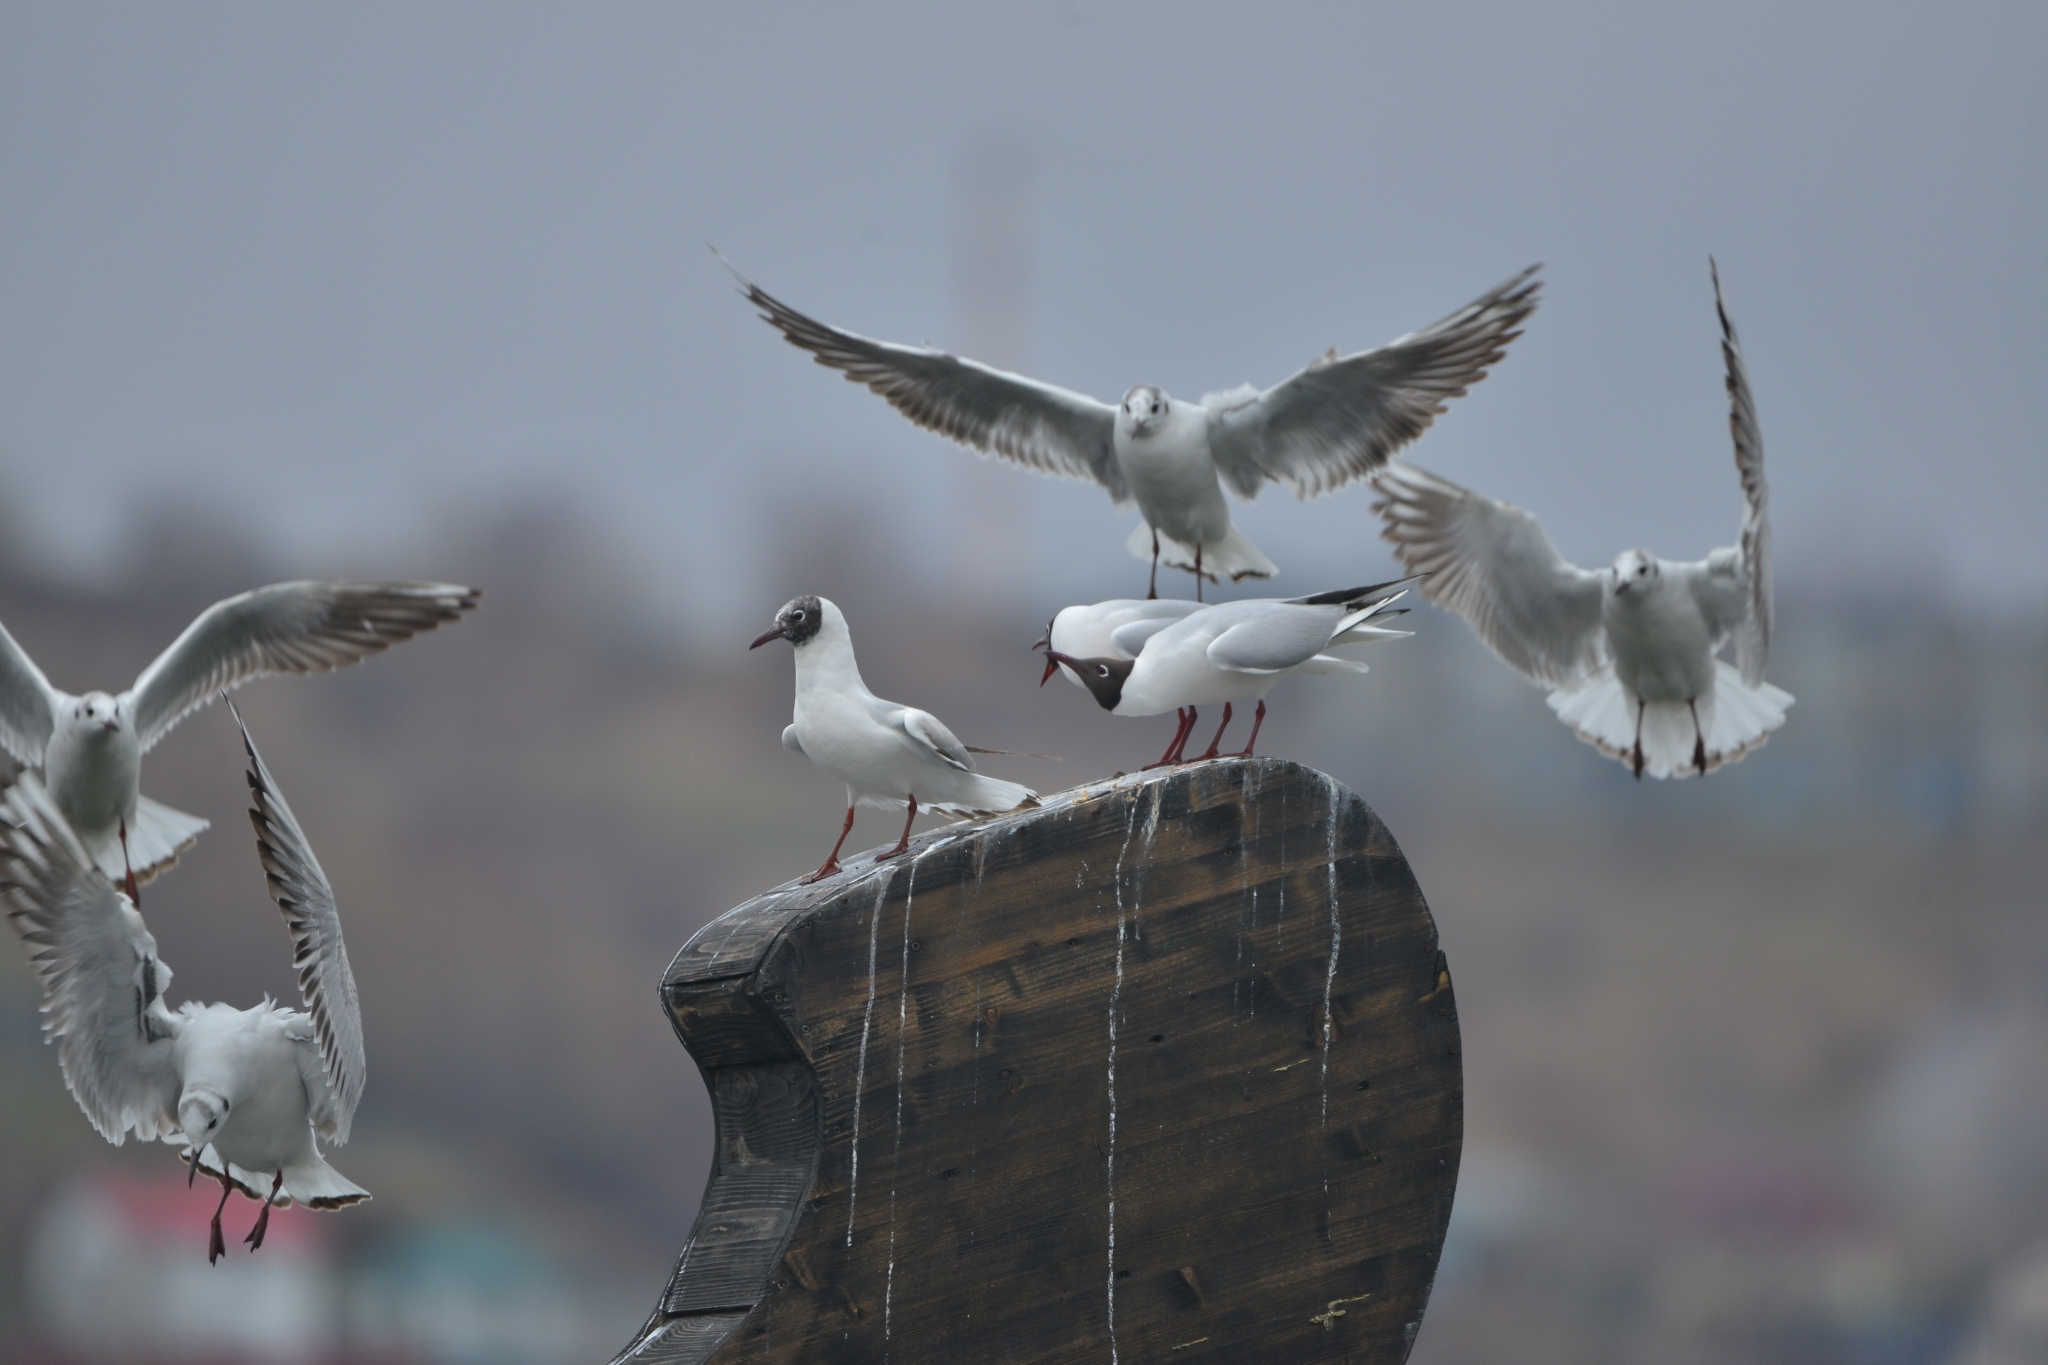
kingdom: Animalia
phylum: Chordata
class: Aves
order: Charadriiformes
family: Laridae
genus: Chroicocephalus
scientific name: Chroicocephalus ridibundus
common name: Black-headed gull
